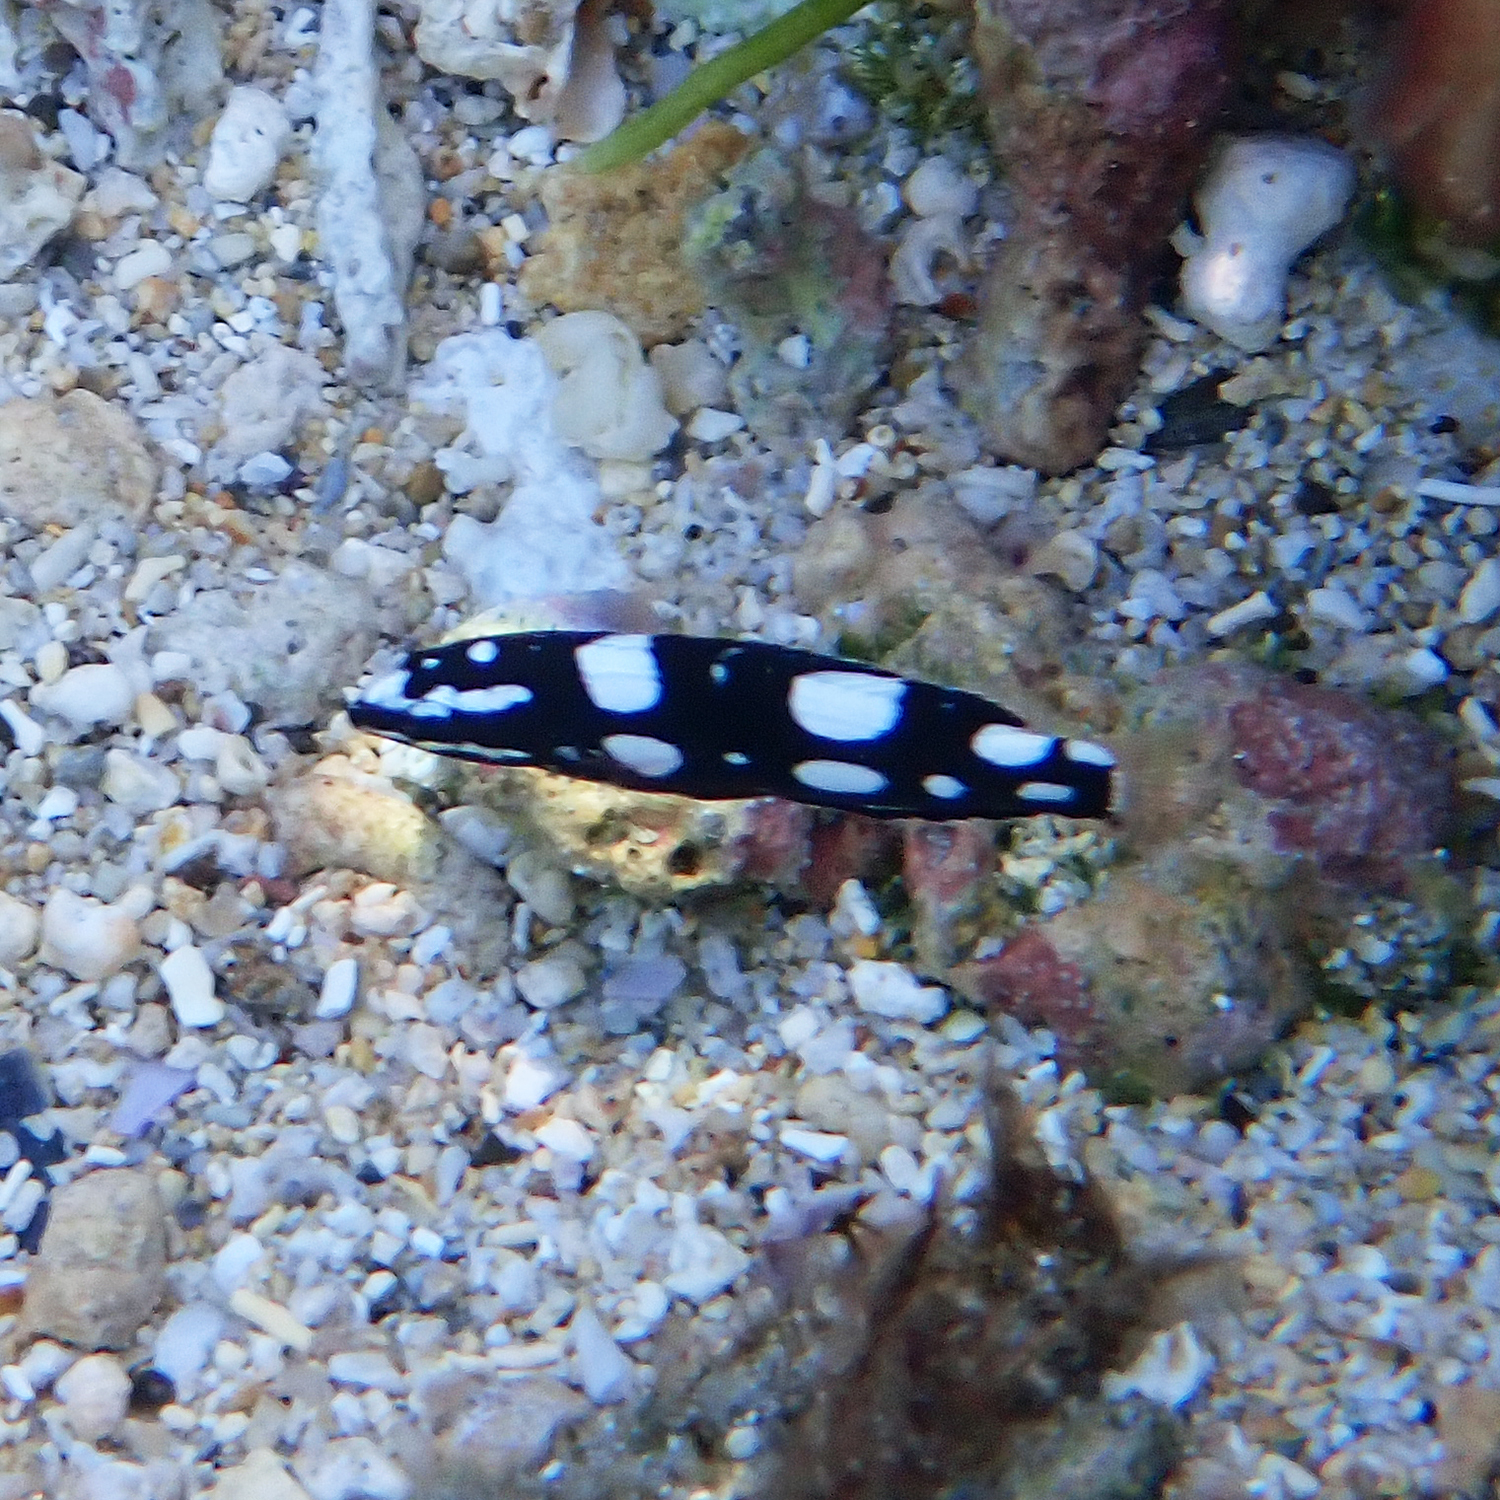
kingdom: Animalia
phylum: Chordata
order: Perciformes
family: Labridae
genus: Coris
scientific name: Coris bulbifrons
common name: Doubleheader
